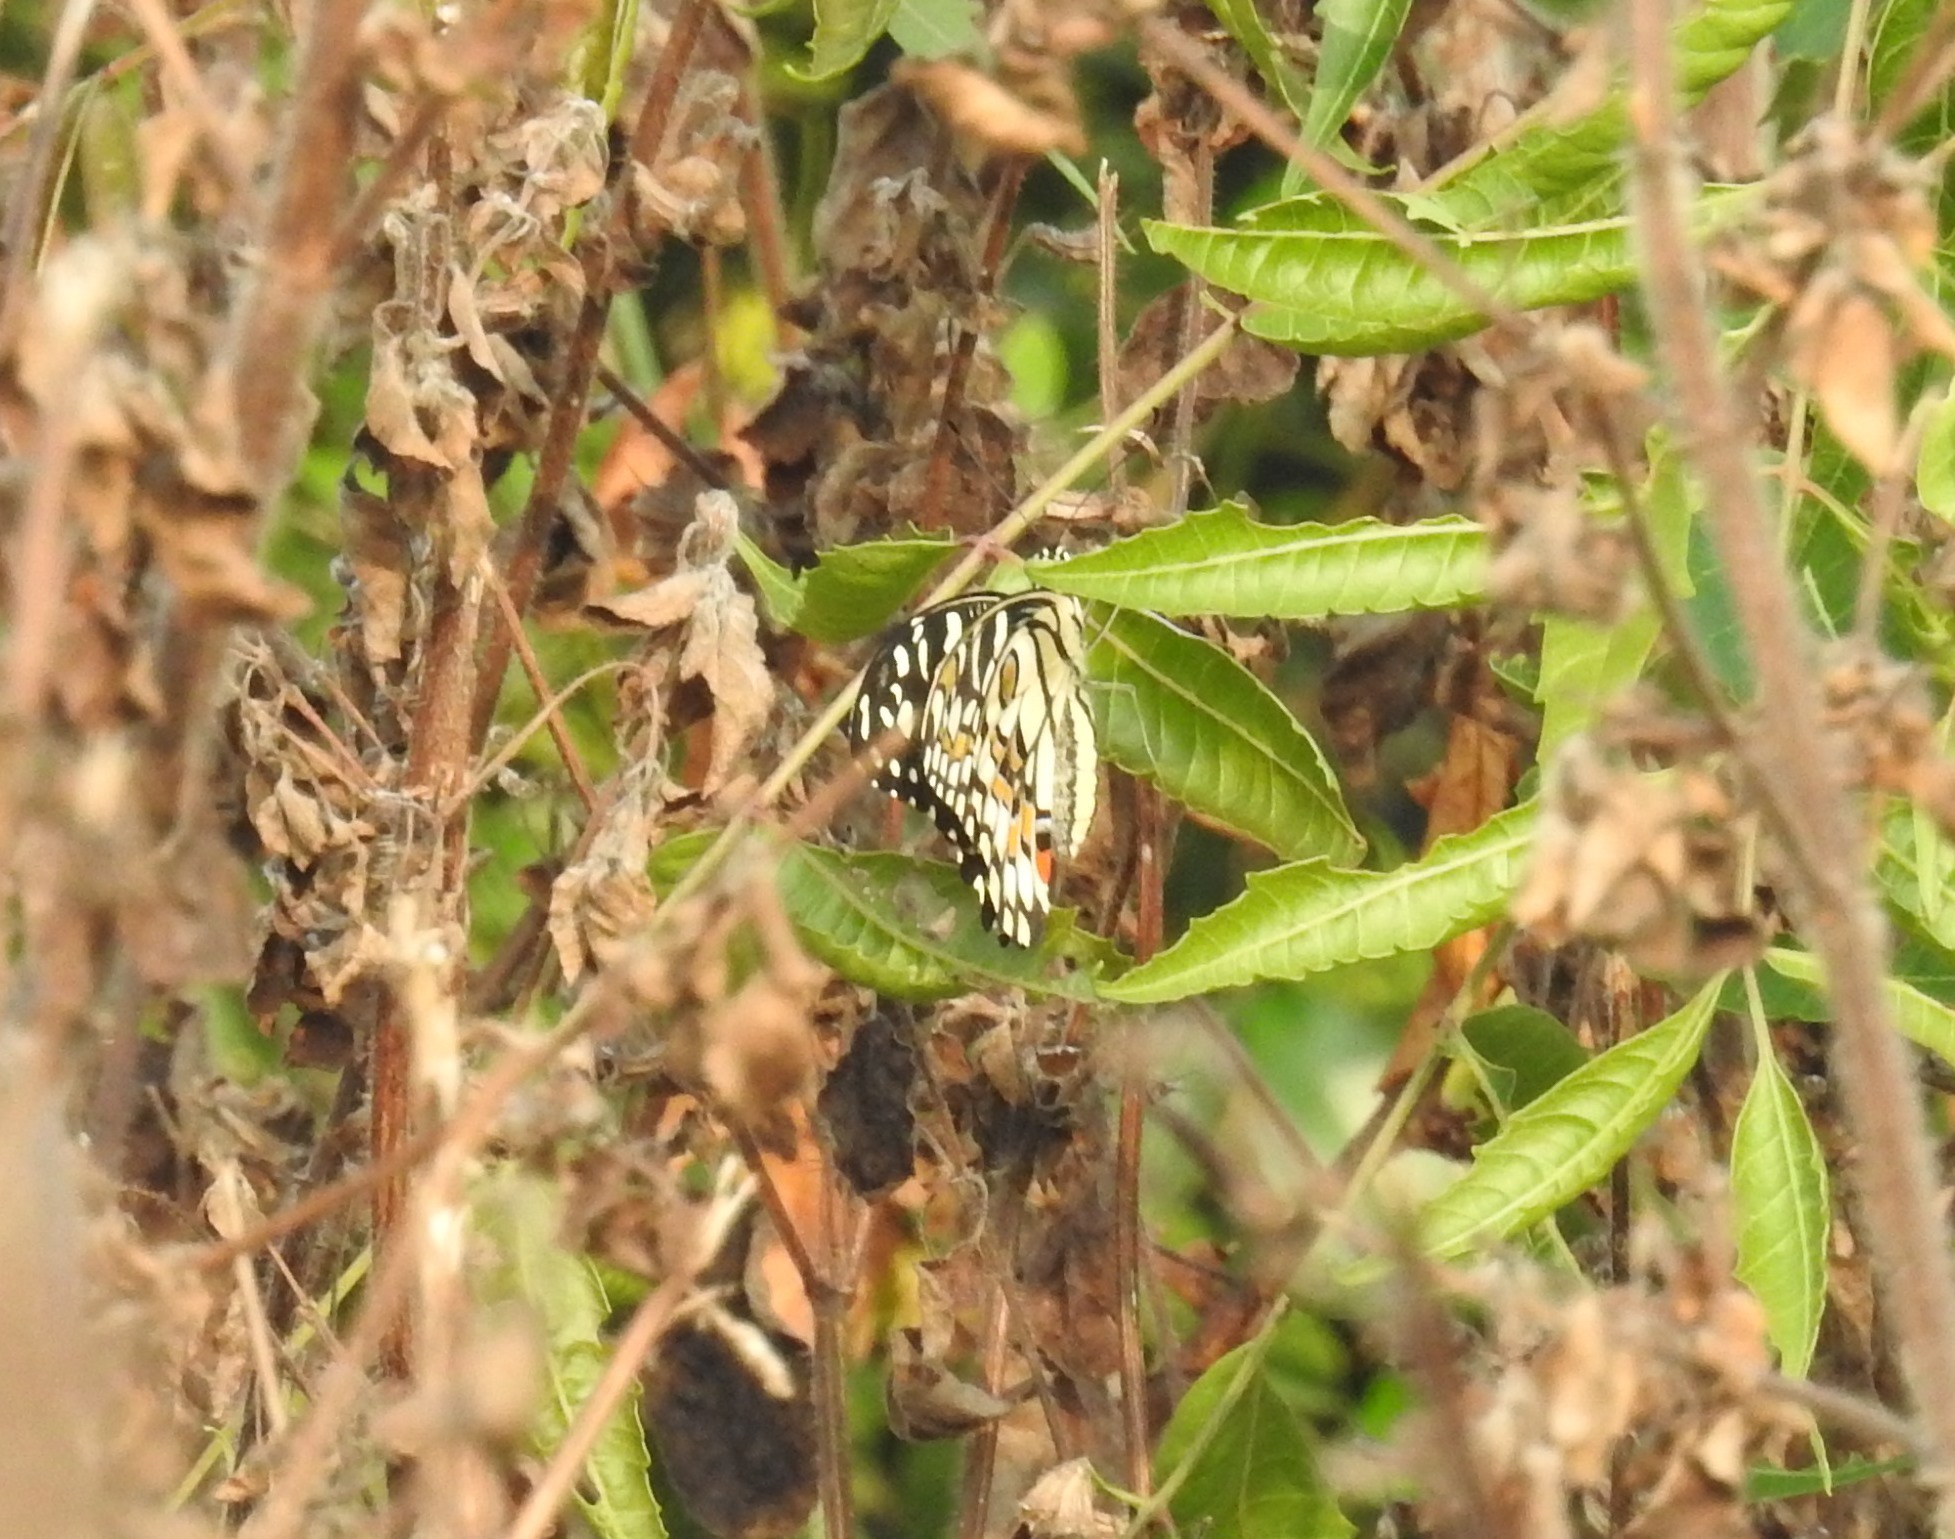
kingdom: Animalia
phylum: Arthropoda
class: Insecta
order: Lepidoptera
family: Papilionidae
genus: Papilio
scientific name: Papilio demoleus
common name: Lime butterfly
